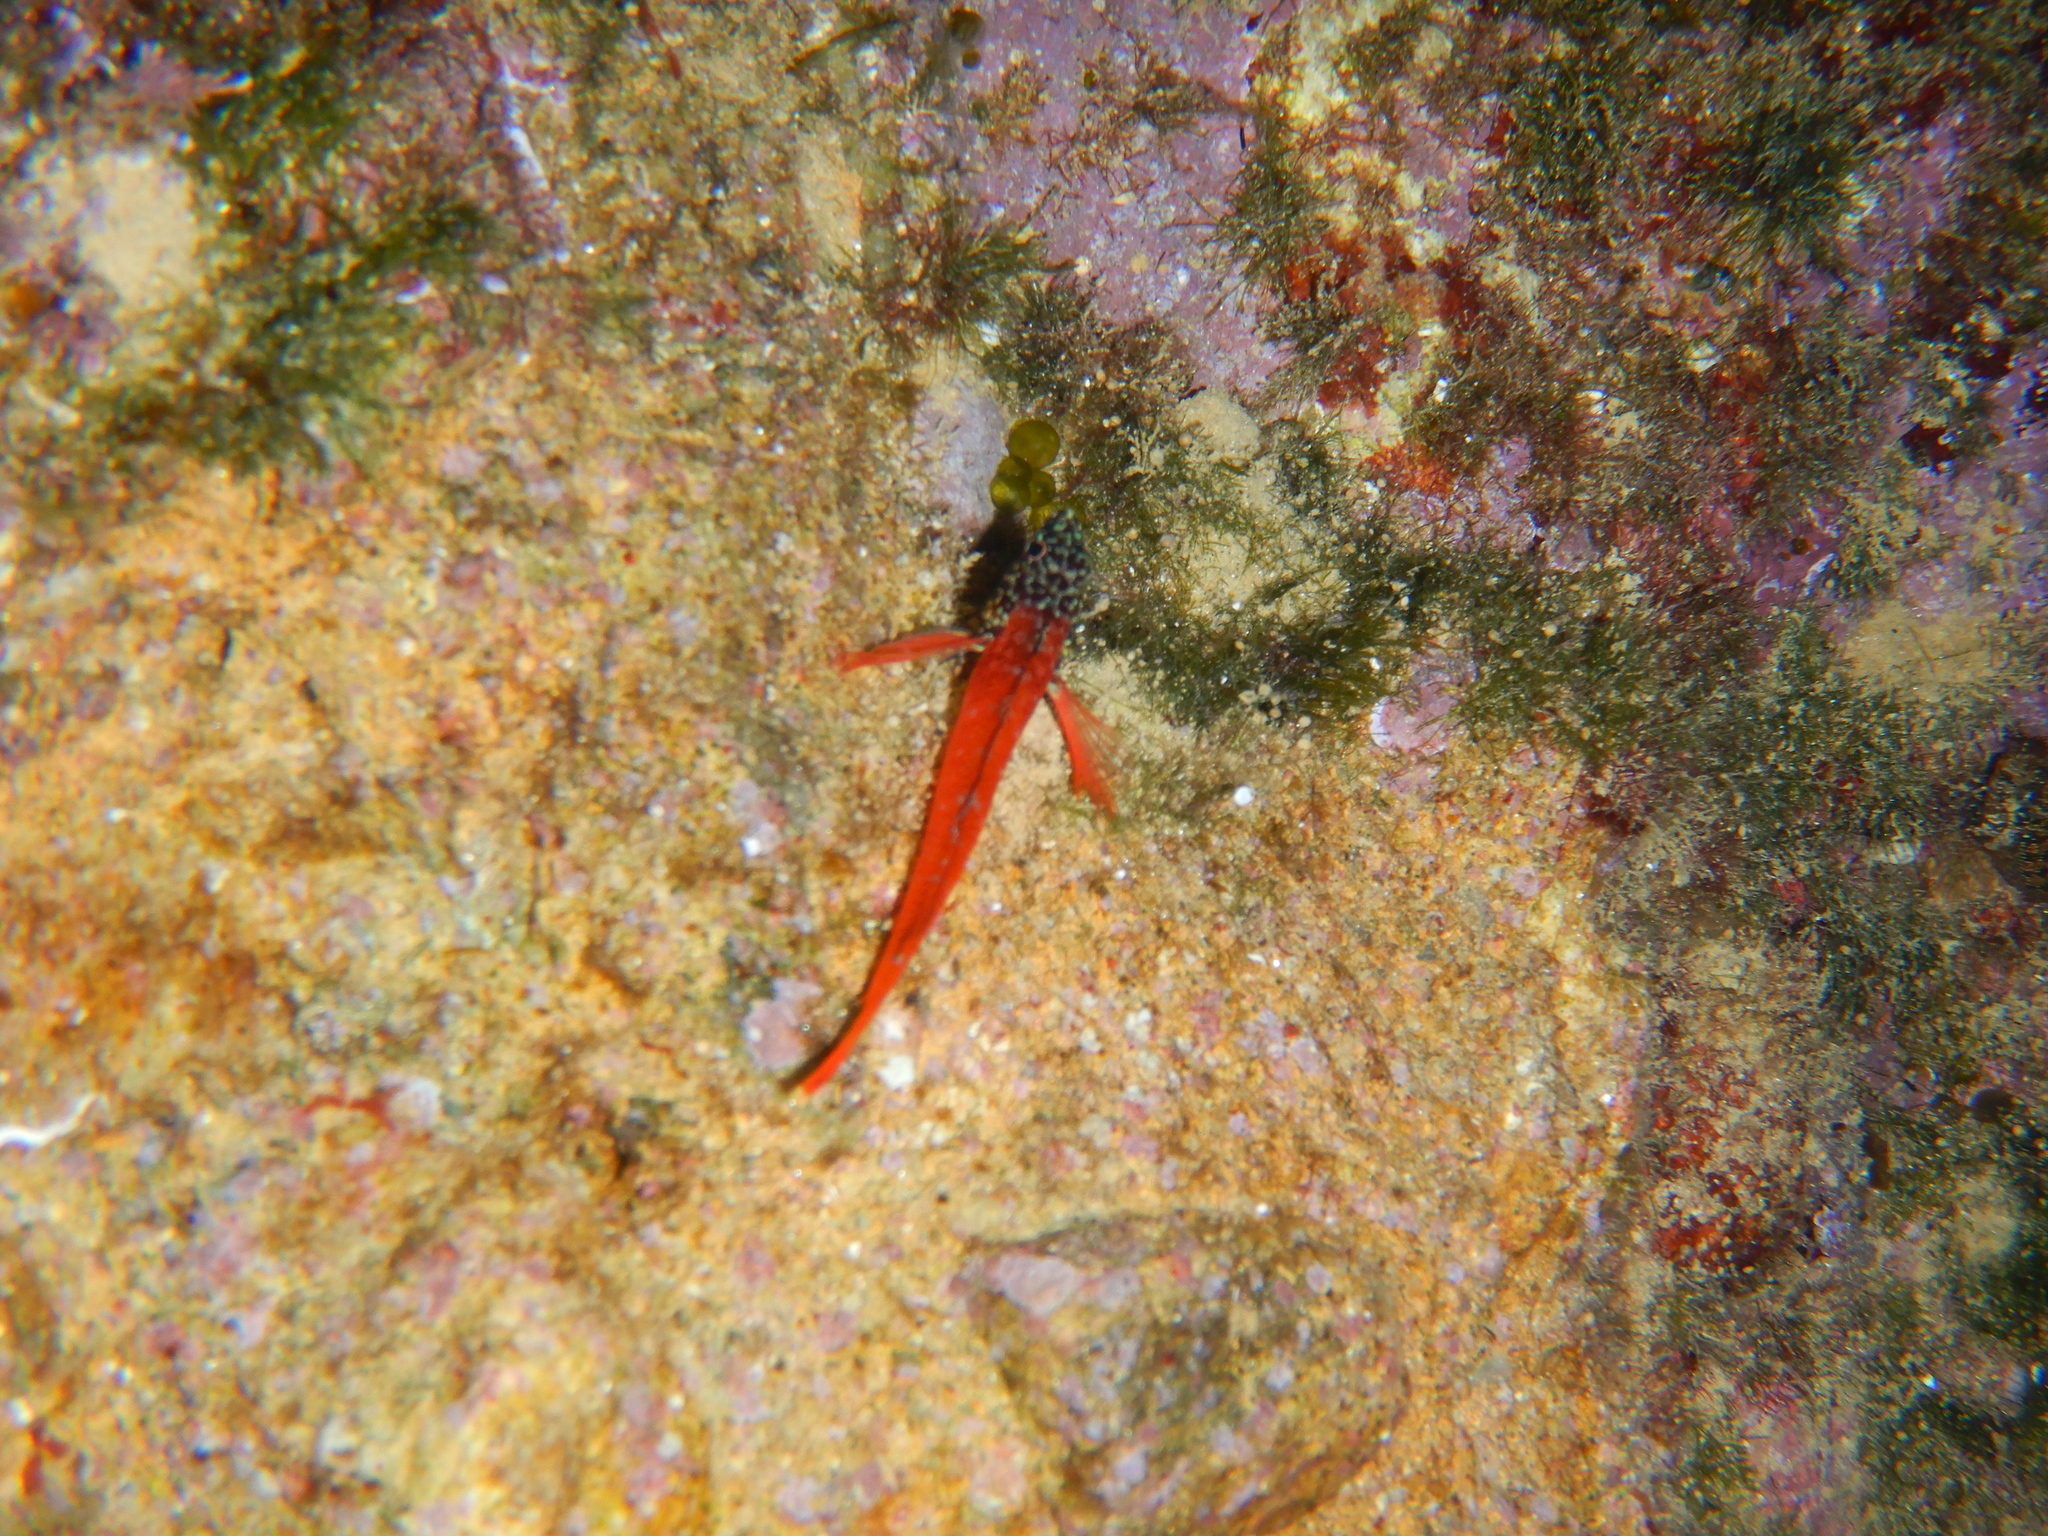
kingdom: Animalia
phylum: Chordata
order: Perciformes
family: Tripterygiidae
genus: Tripterygion
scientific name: Tripterygion melanurum
